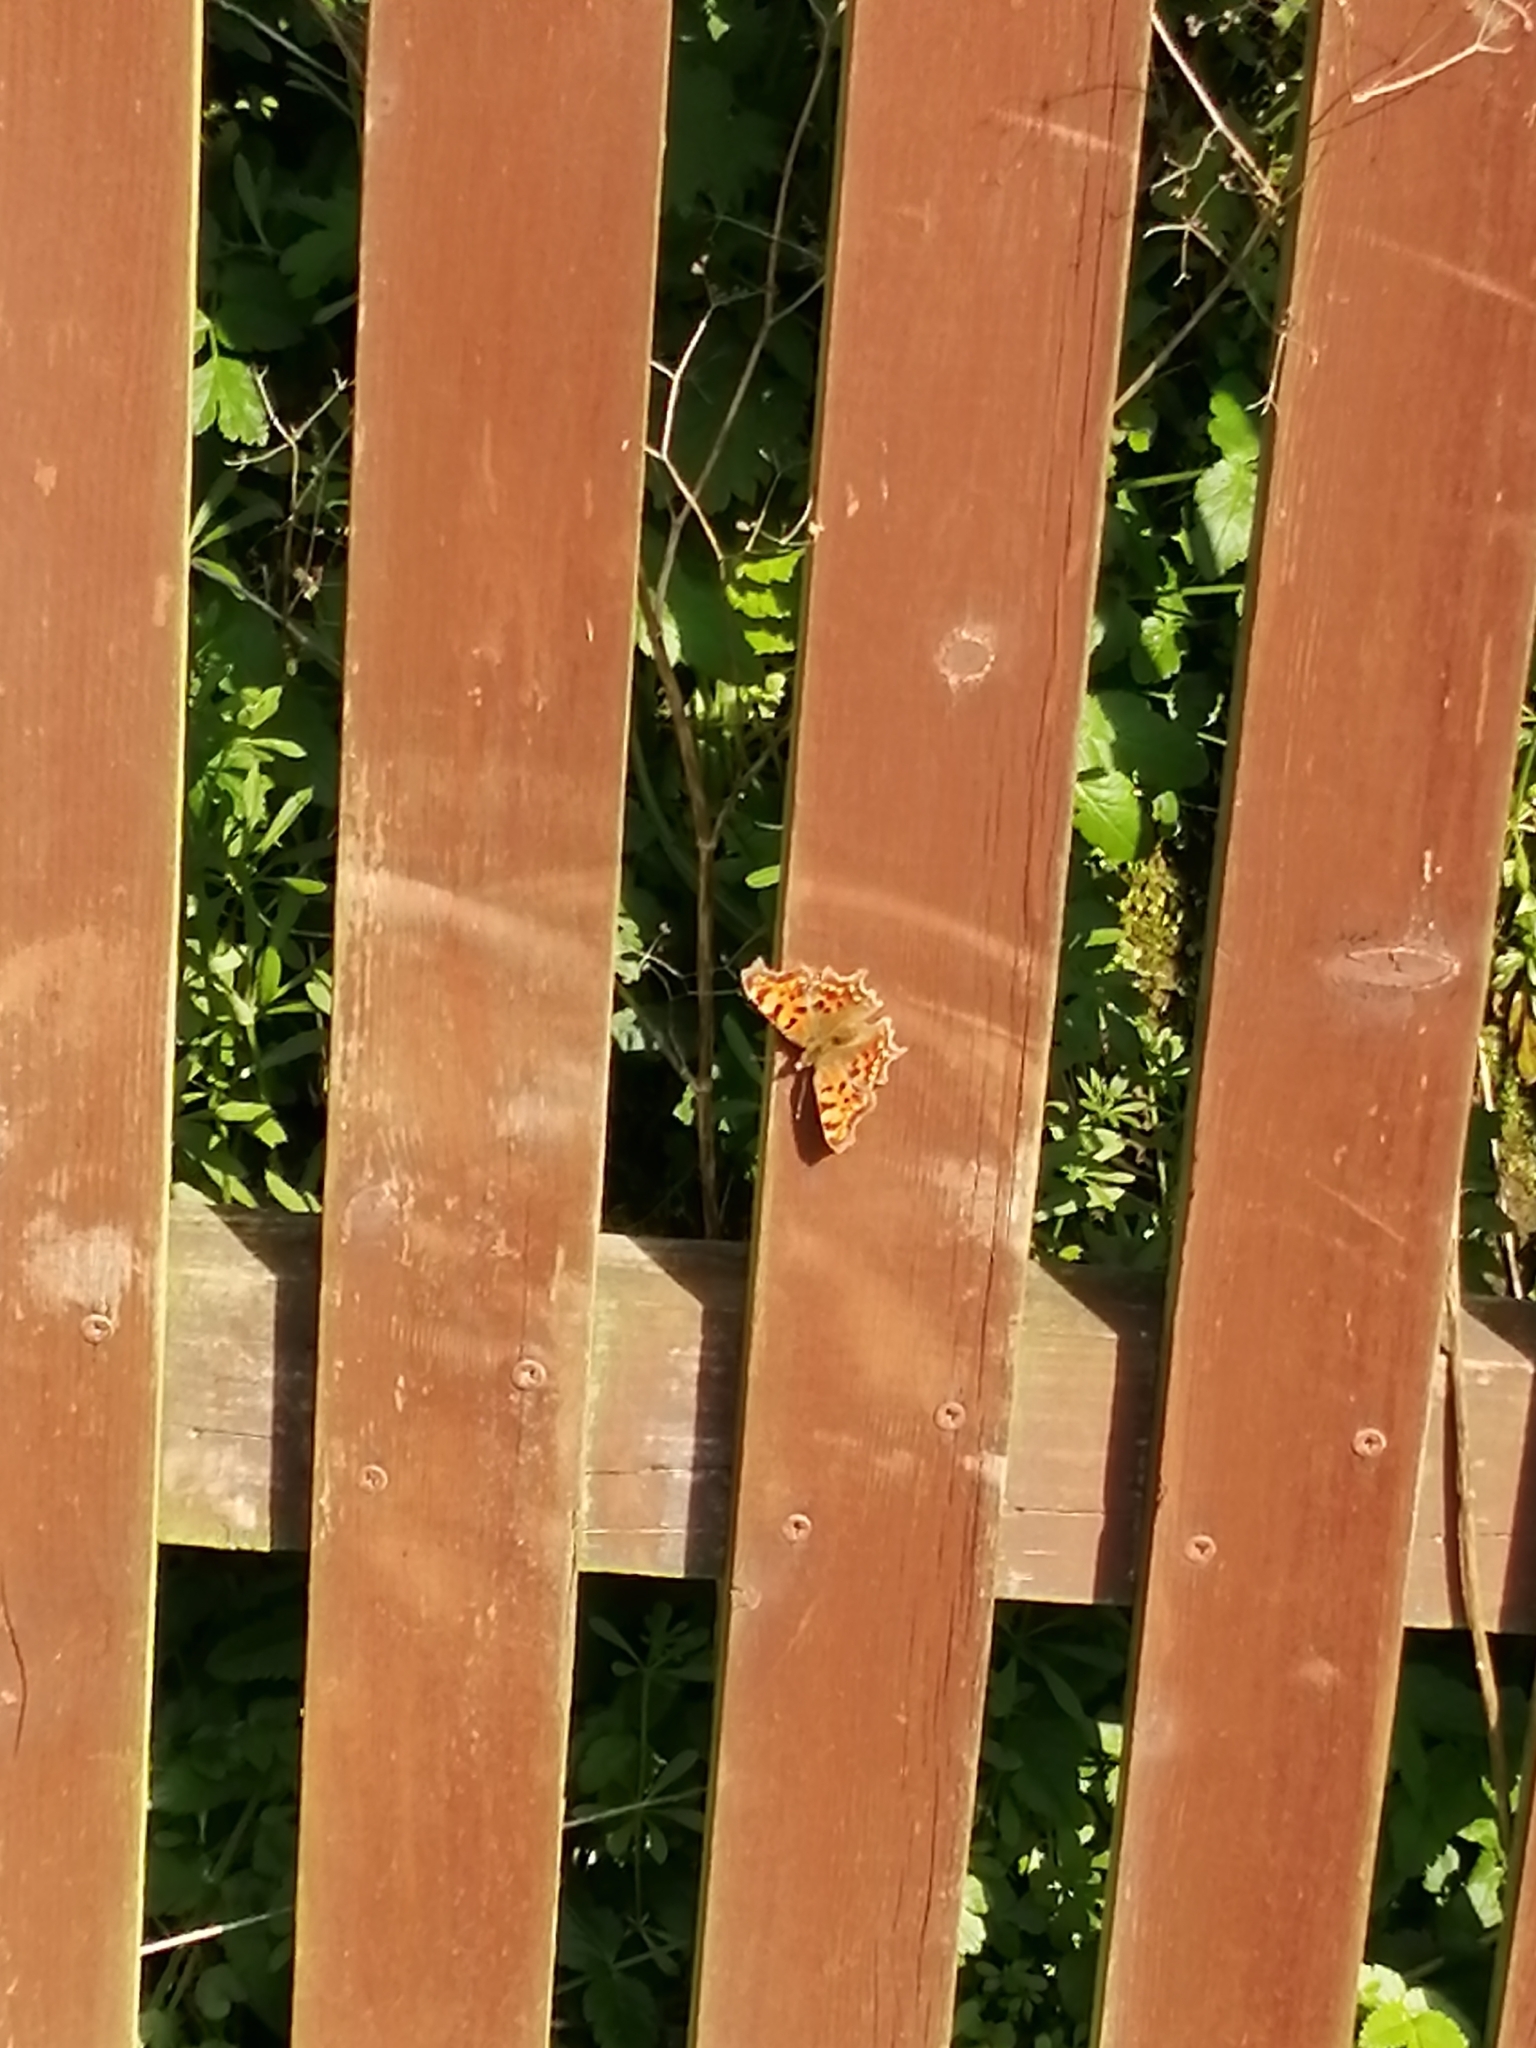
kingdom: Animalia
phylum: Arthropoda
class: Insecta
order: Lepidoptera
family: Nymphalidae
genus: Polygonia
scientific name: Polygonia c-album
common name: Comma
